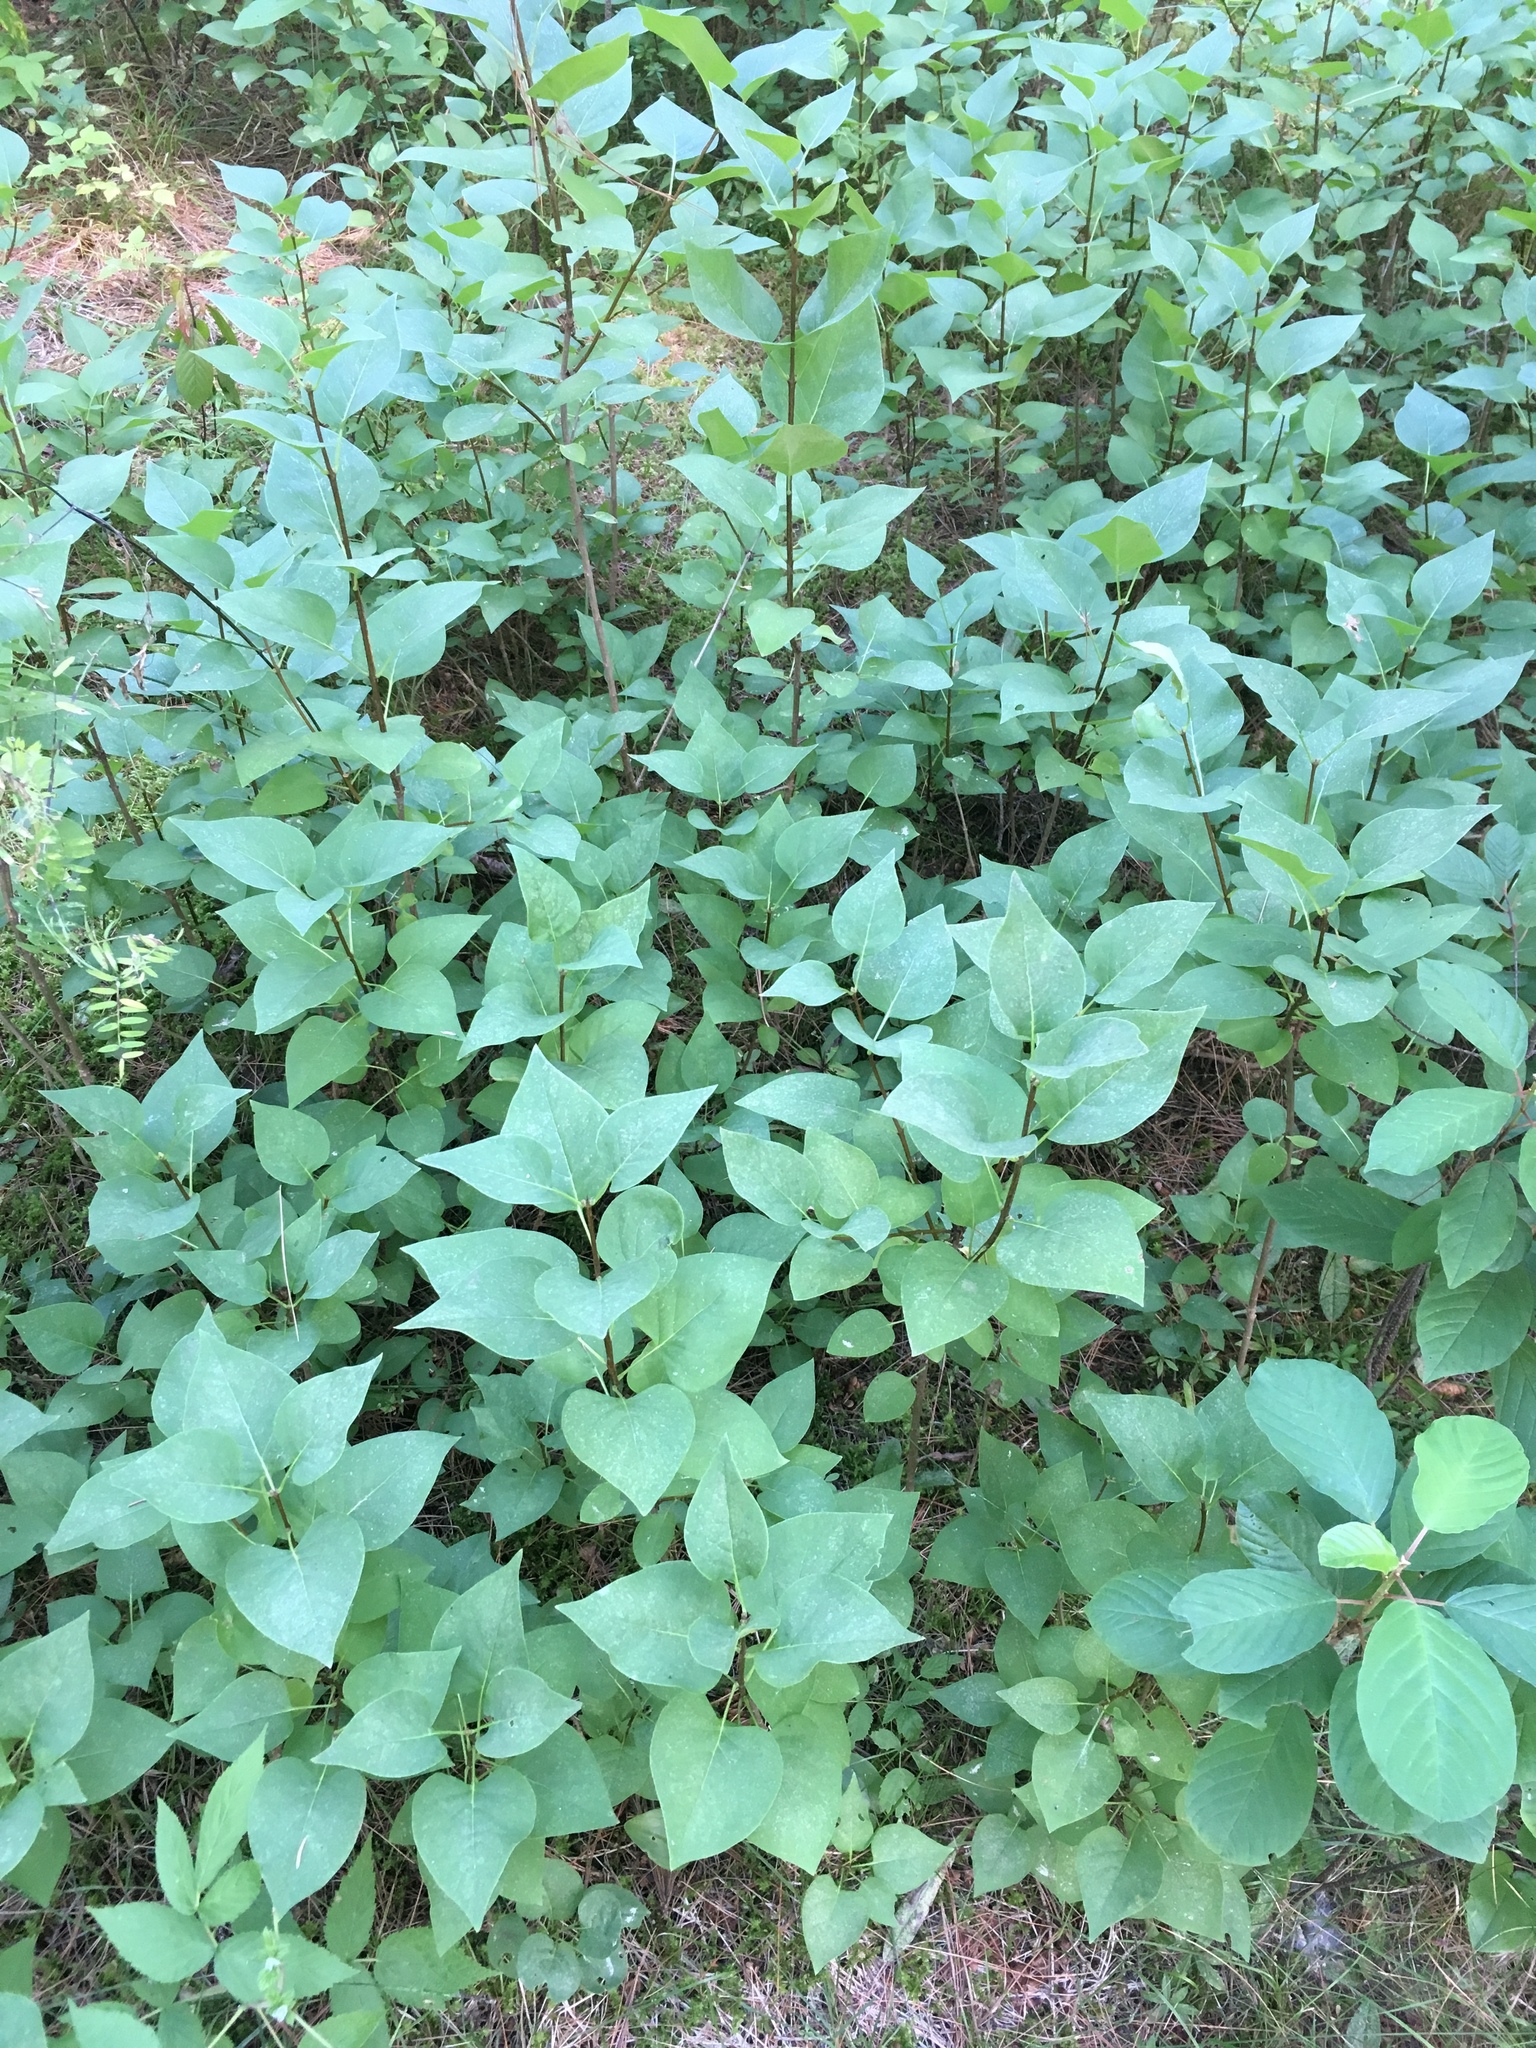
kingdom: Plantae
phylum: Tracheophyta
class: Magnoliopsida
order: Lamiales
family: Oleaceae
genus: Syringa
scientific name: Syringa vulgaris
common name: Common lilac
